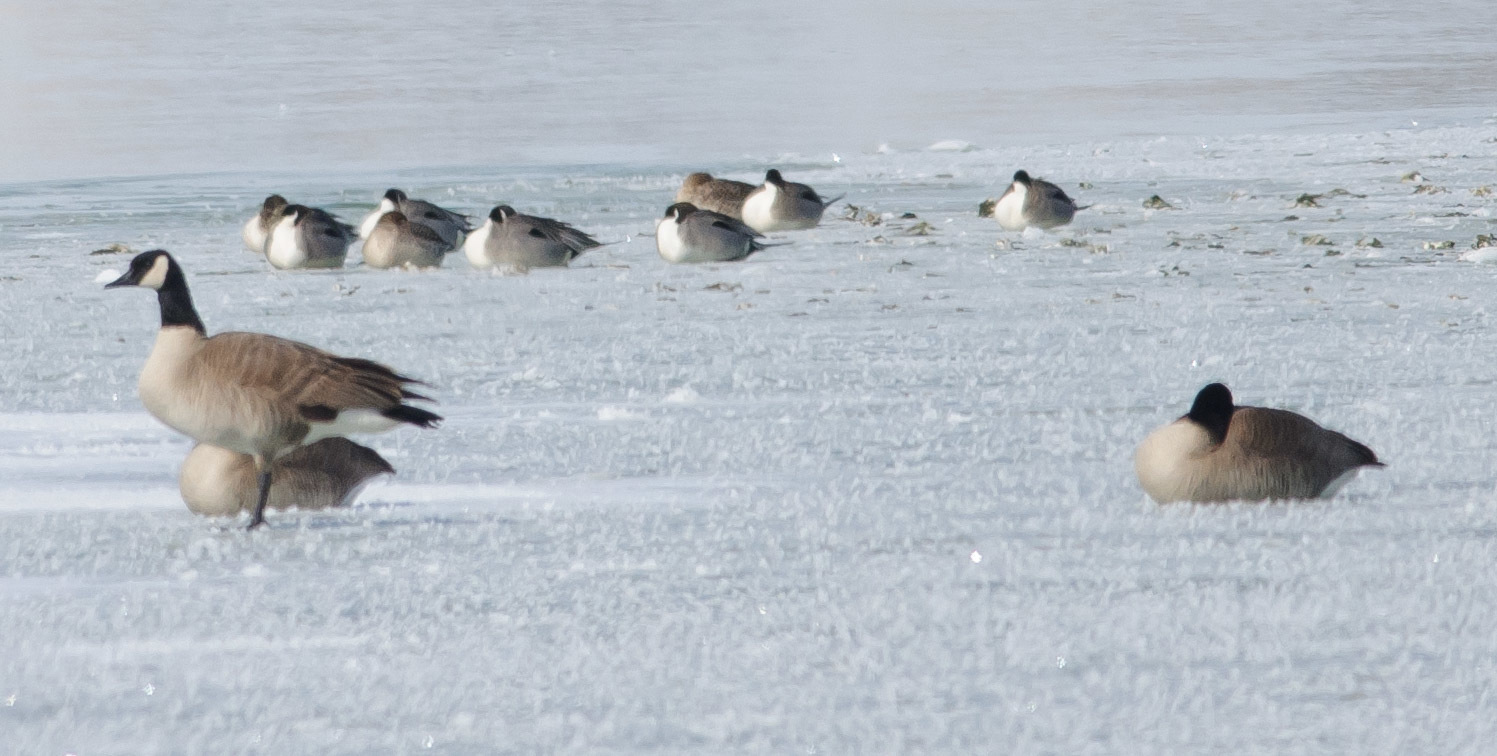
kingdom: Animalia
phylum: Chordata
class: Aves
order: Anseriformes
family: Anatidae
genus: Anas
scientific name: Anas acuta
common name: Northern pintail
